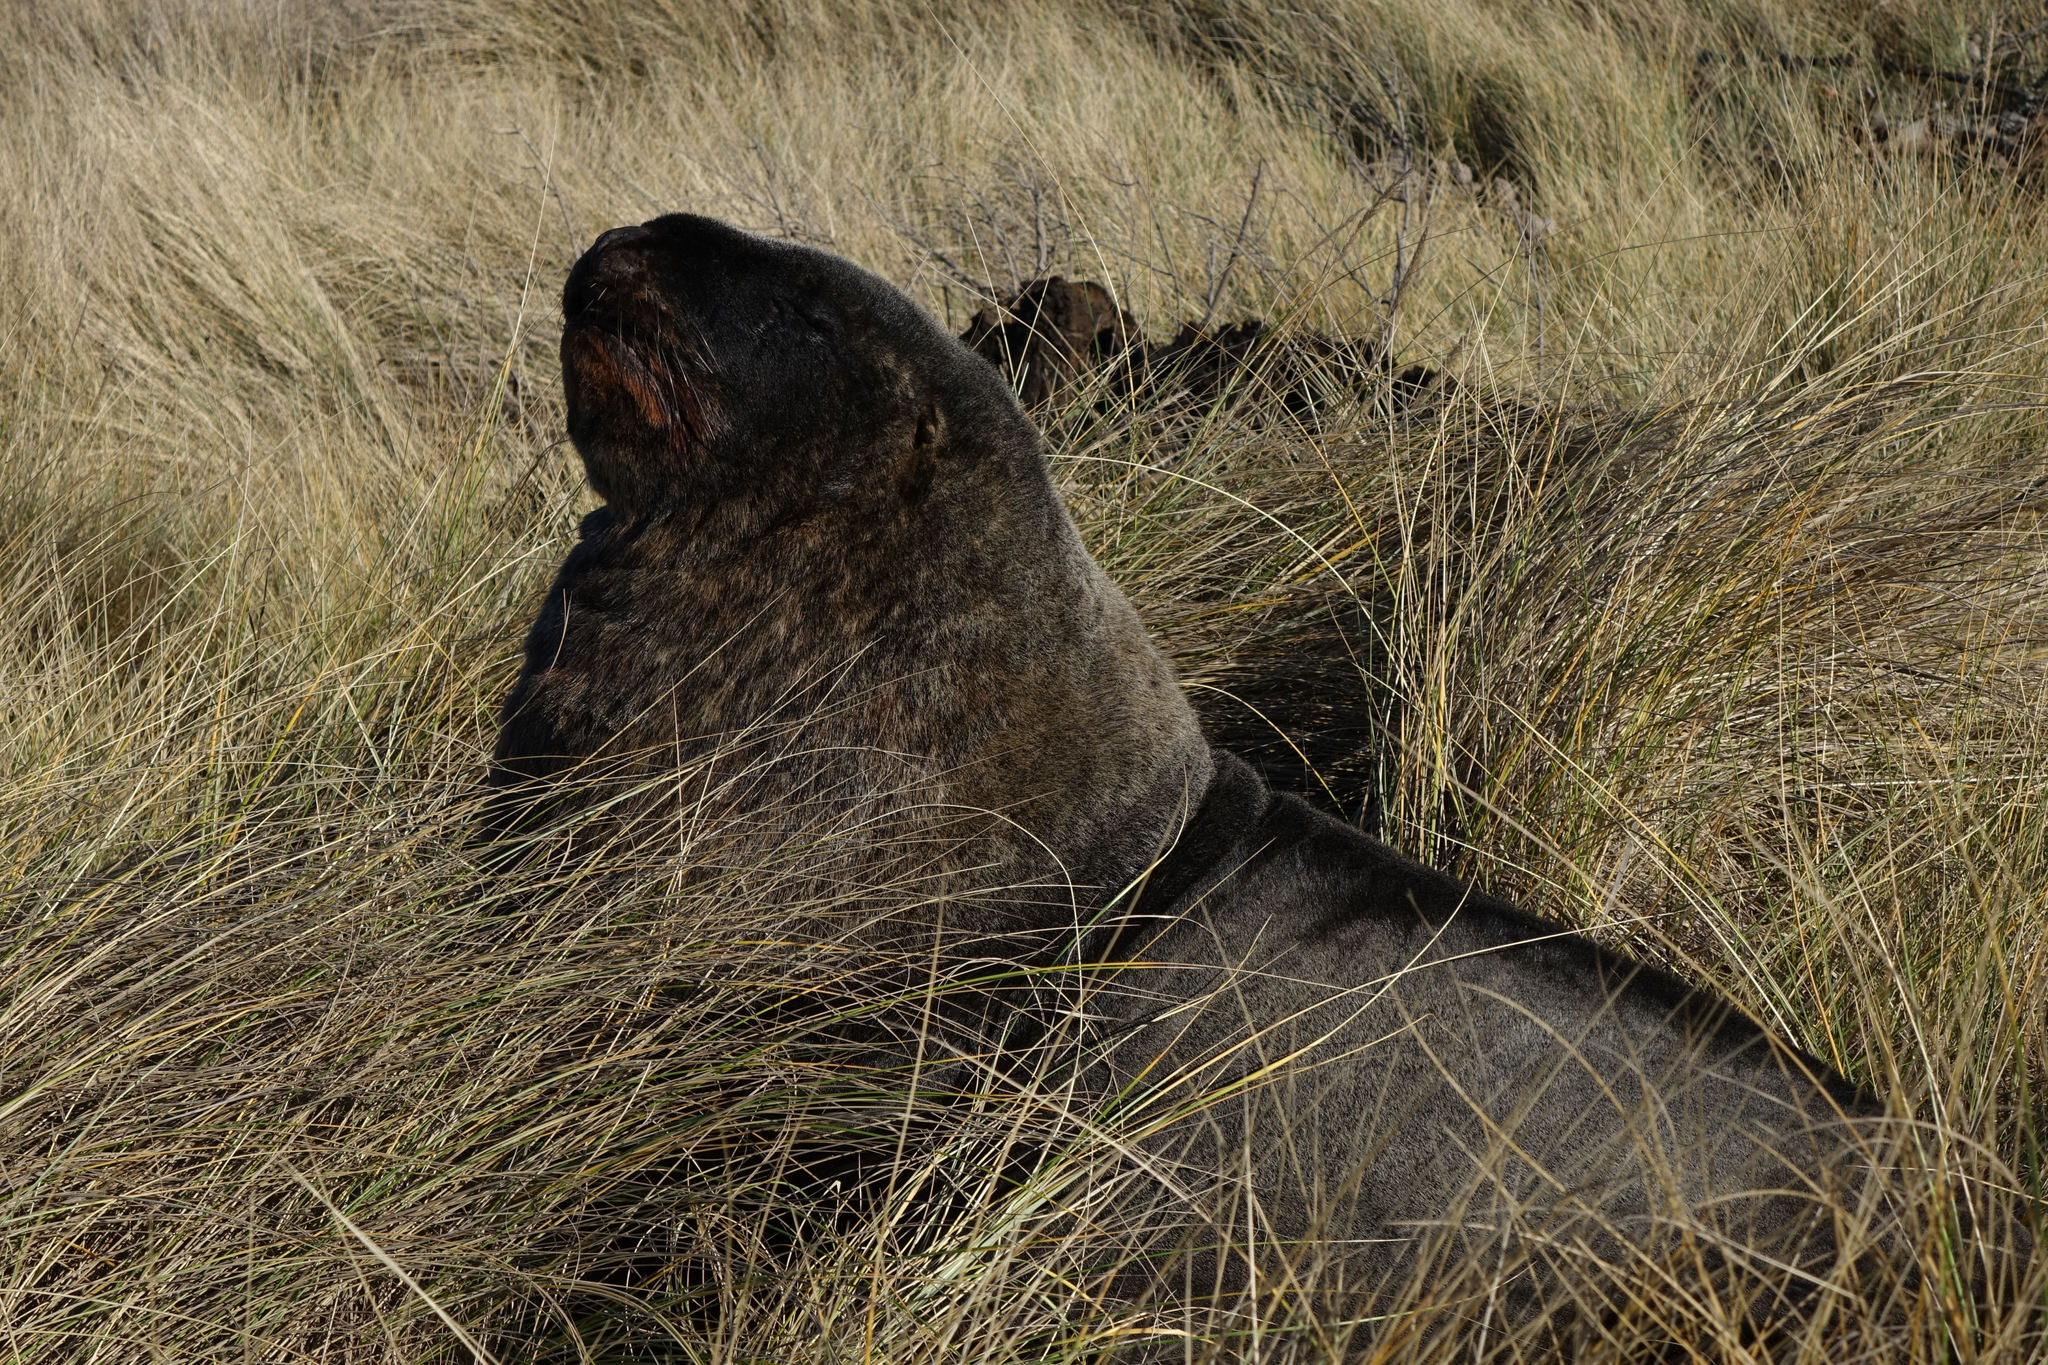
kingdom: Animalia
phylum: Chordata
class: Mammalia
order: Carnivora
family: Otariidae
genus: Phocarctos
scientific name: Phocarctos hookeri
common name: New zealand sea lion
